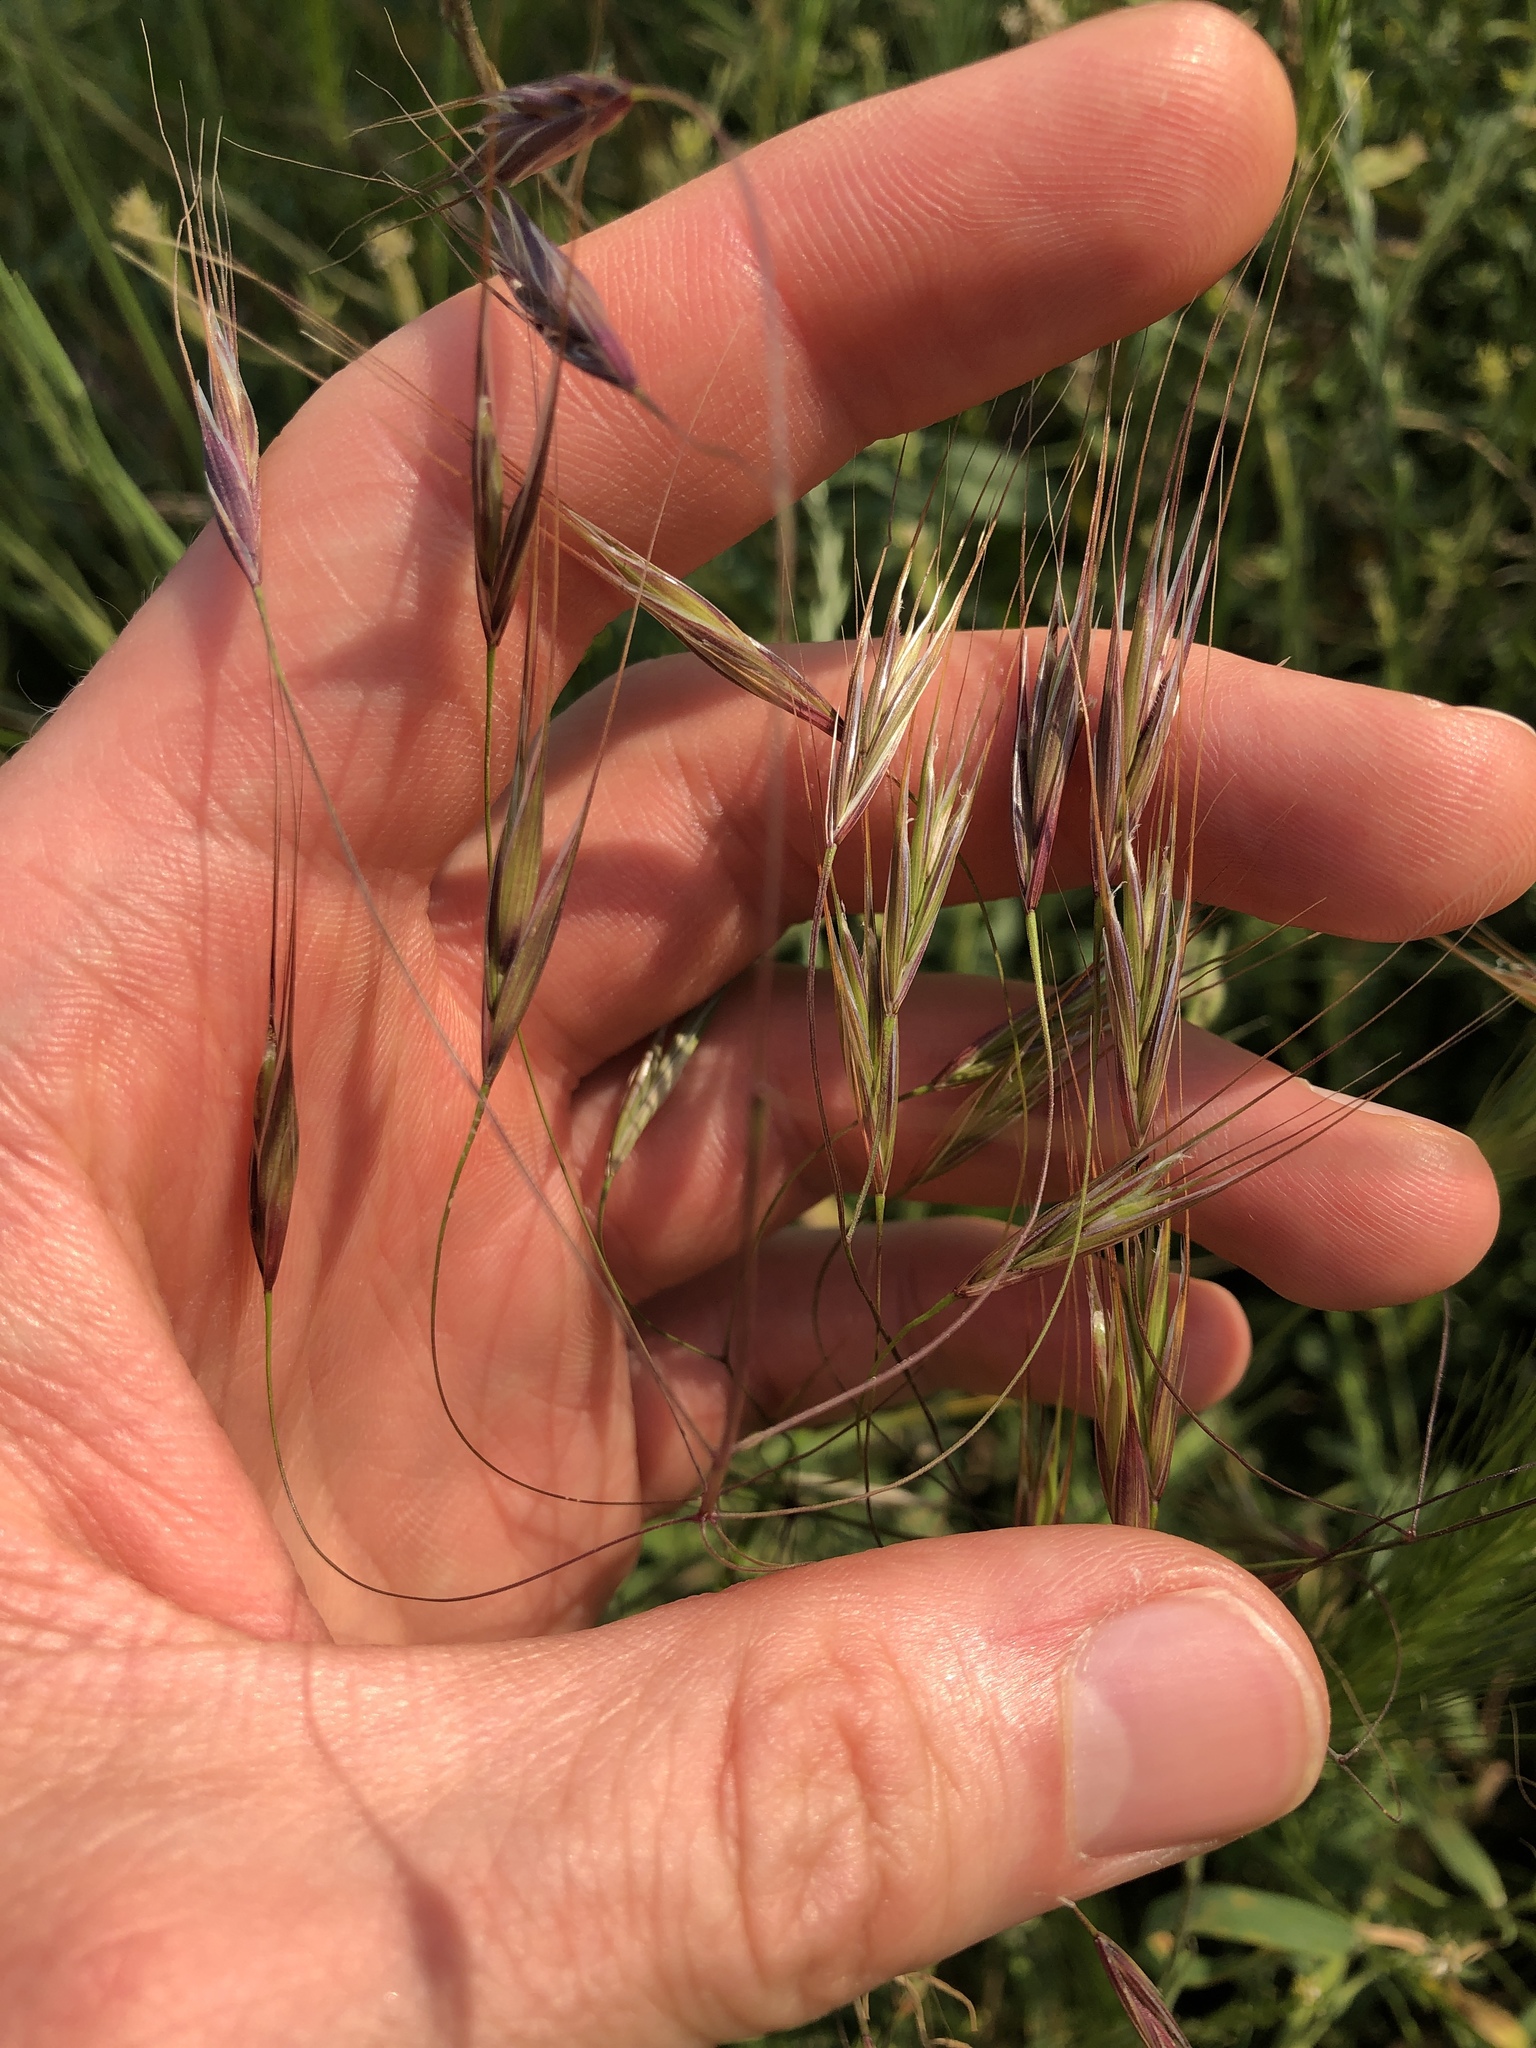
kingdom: Plantae
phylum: Tracheophyta
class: Liliopsida
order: Poales
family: Poaceae
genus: Bromus
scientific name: Bromus tectorum
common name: Cheatgrass
